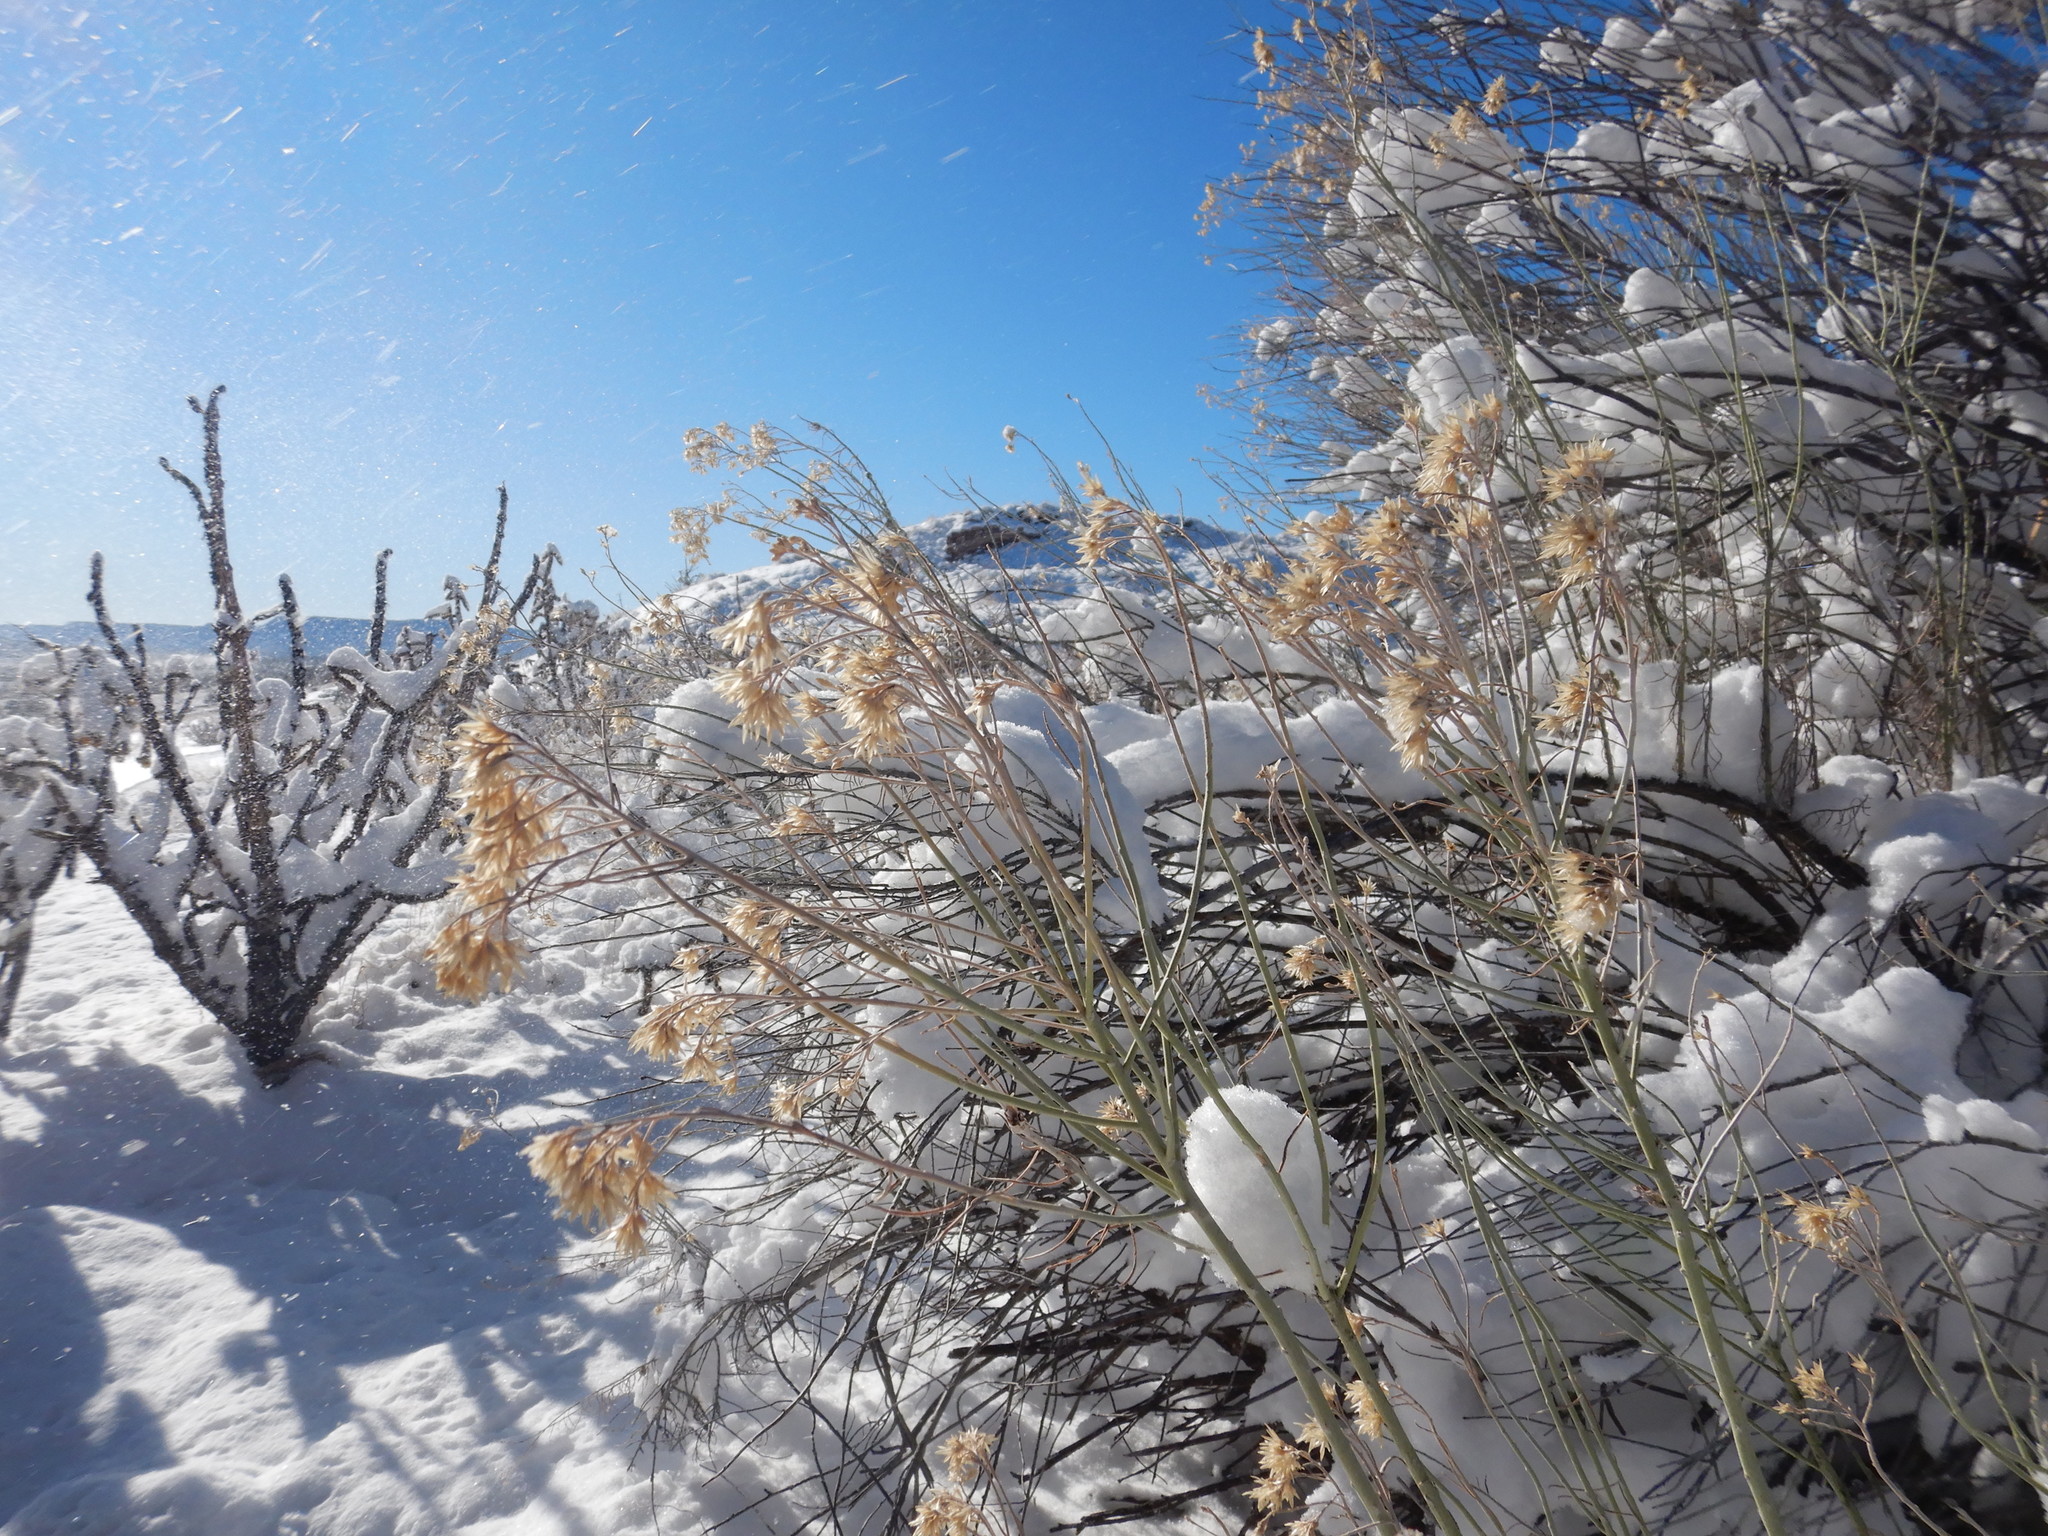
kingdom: Plantae
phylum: Tracheophyta
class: Magnoliopsida
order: Asterales
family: Asteraceae
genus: Ericameria
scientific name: Ericameria nauseosa
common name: Rubber rabbitbrush
